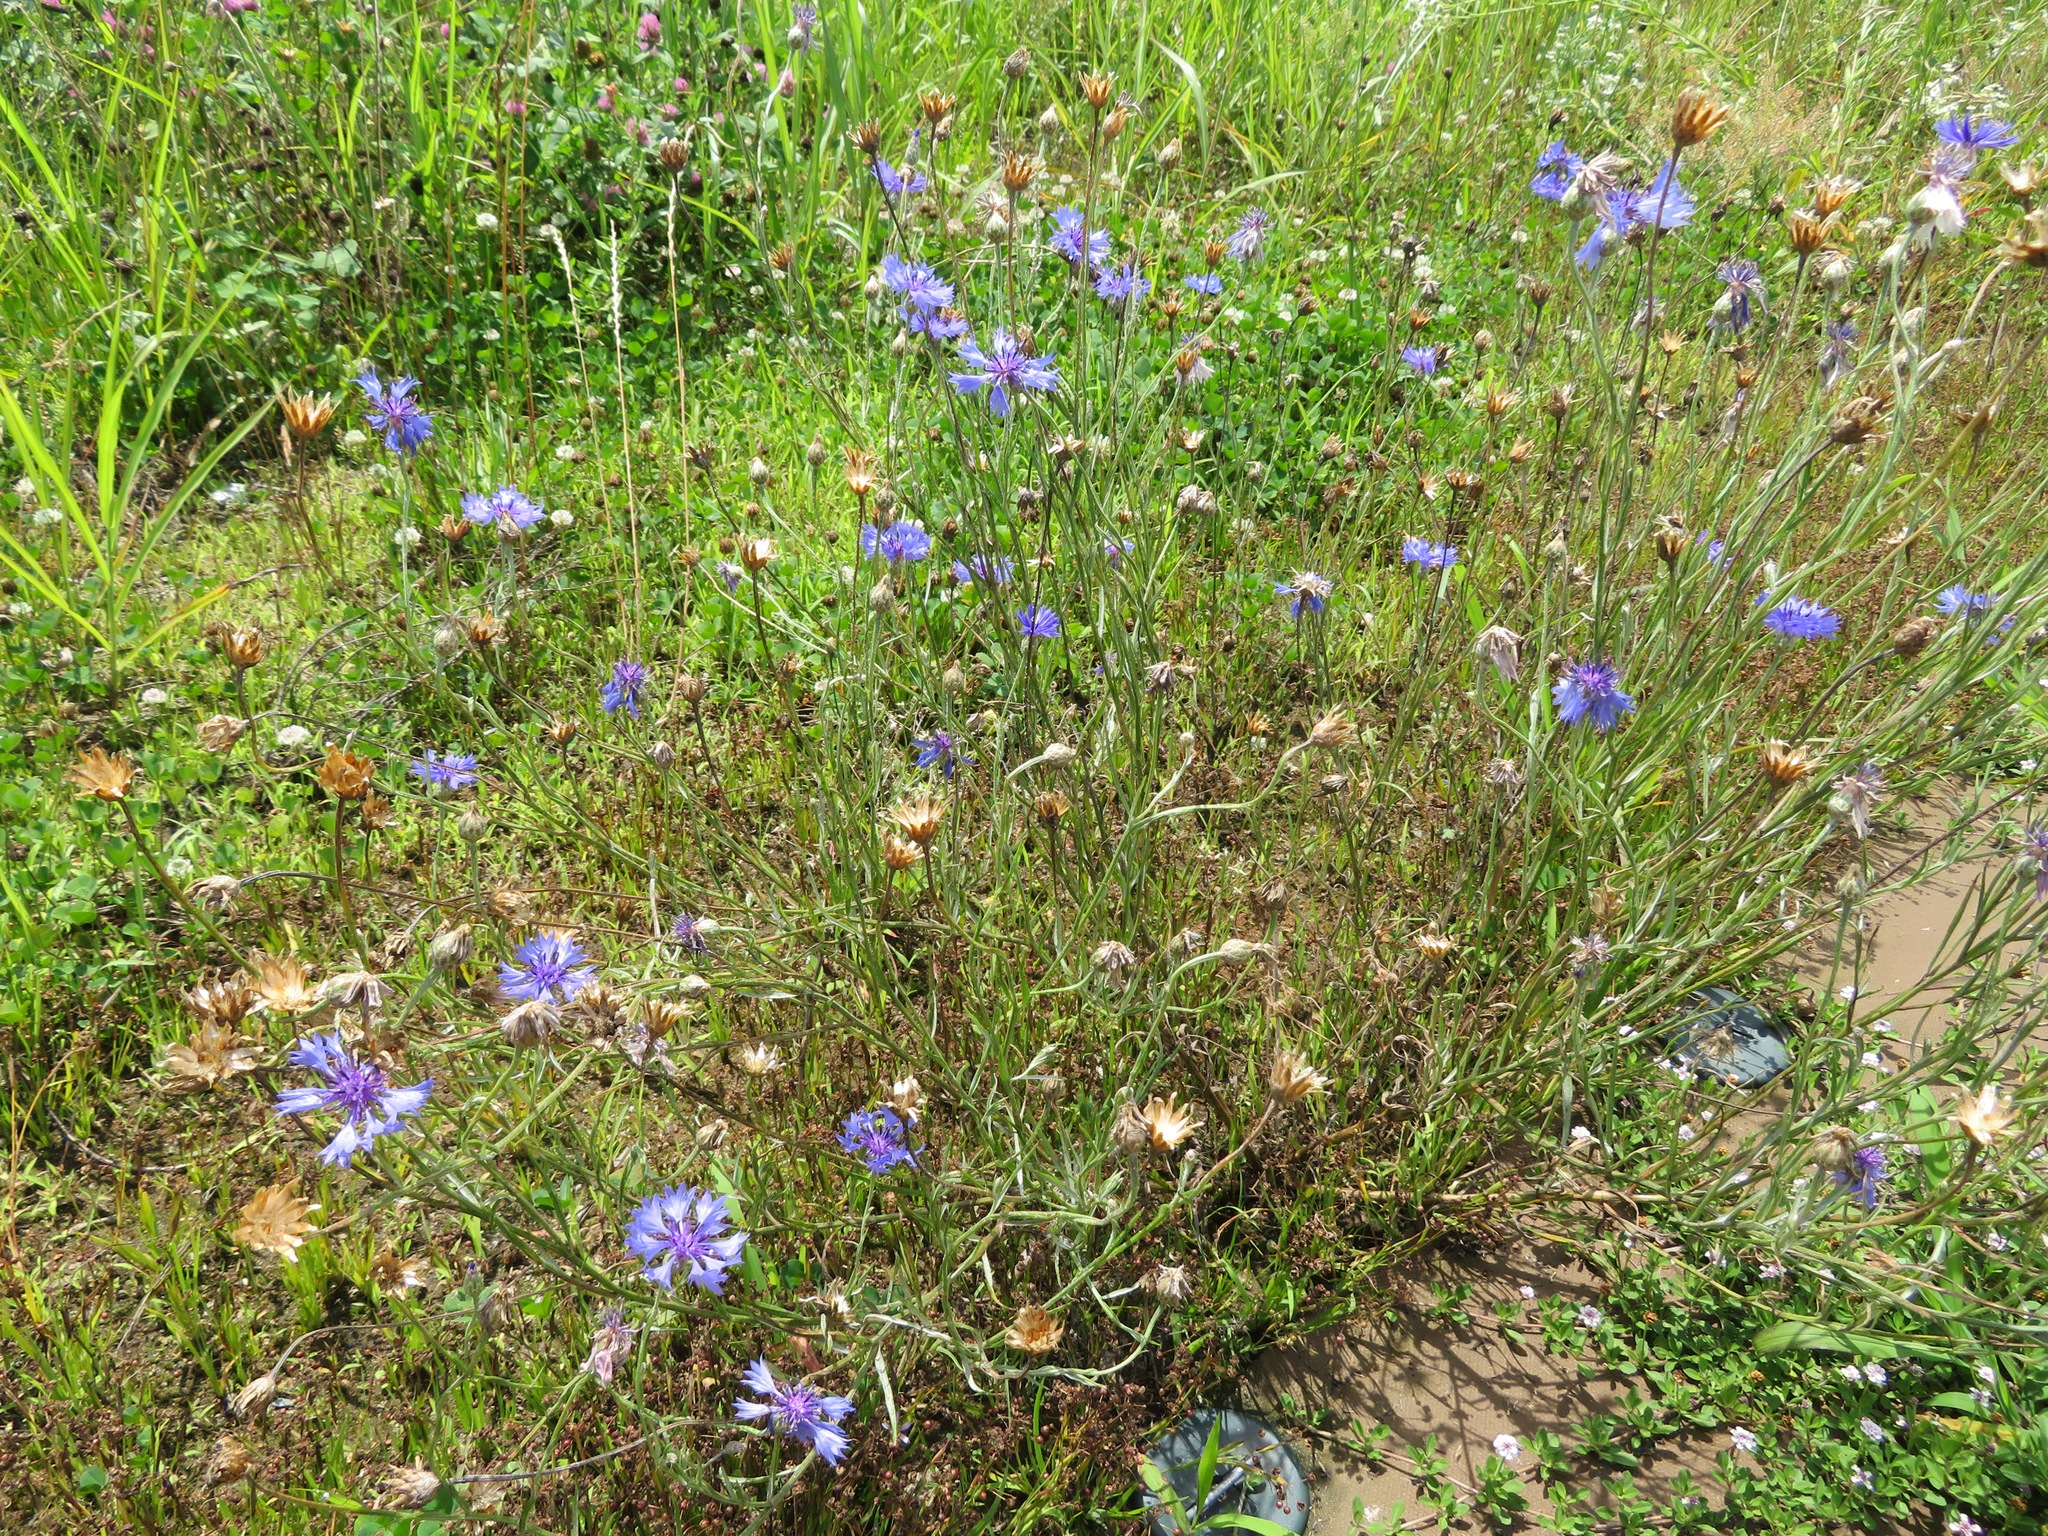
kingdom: Plantae
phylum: Tracheophyta
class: Magnoliopsida
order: Asterales
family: Asteraceae
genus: Centaurea
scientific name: Centaurea cyanus
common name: Cornflower
